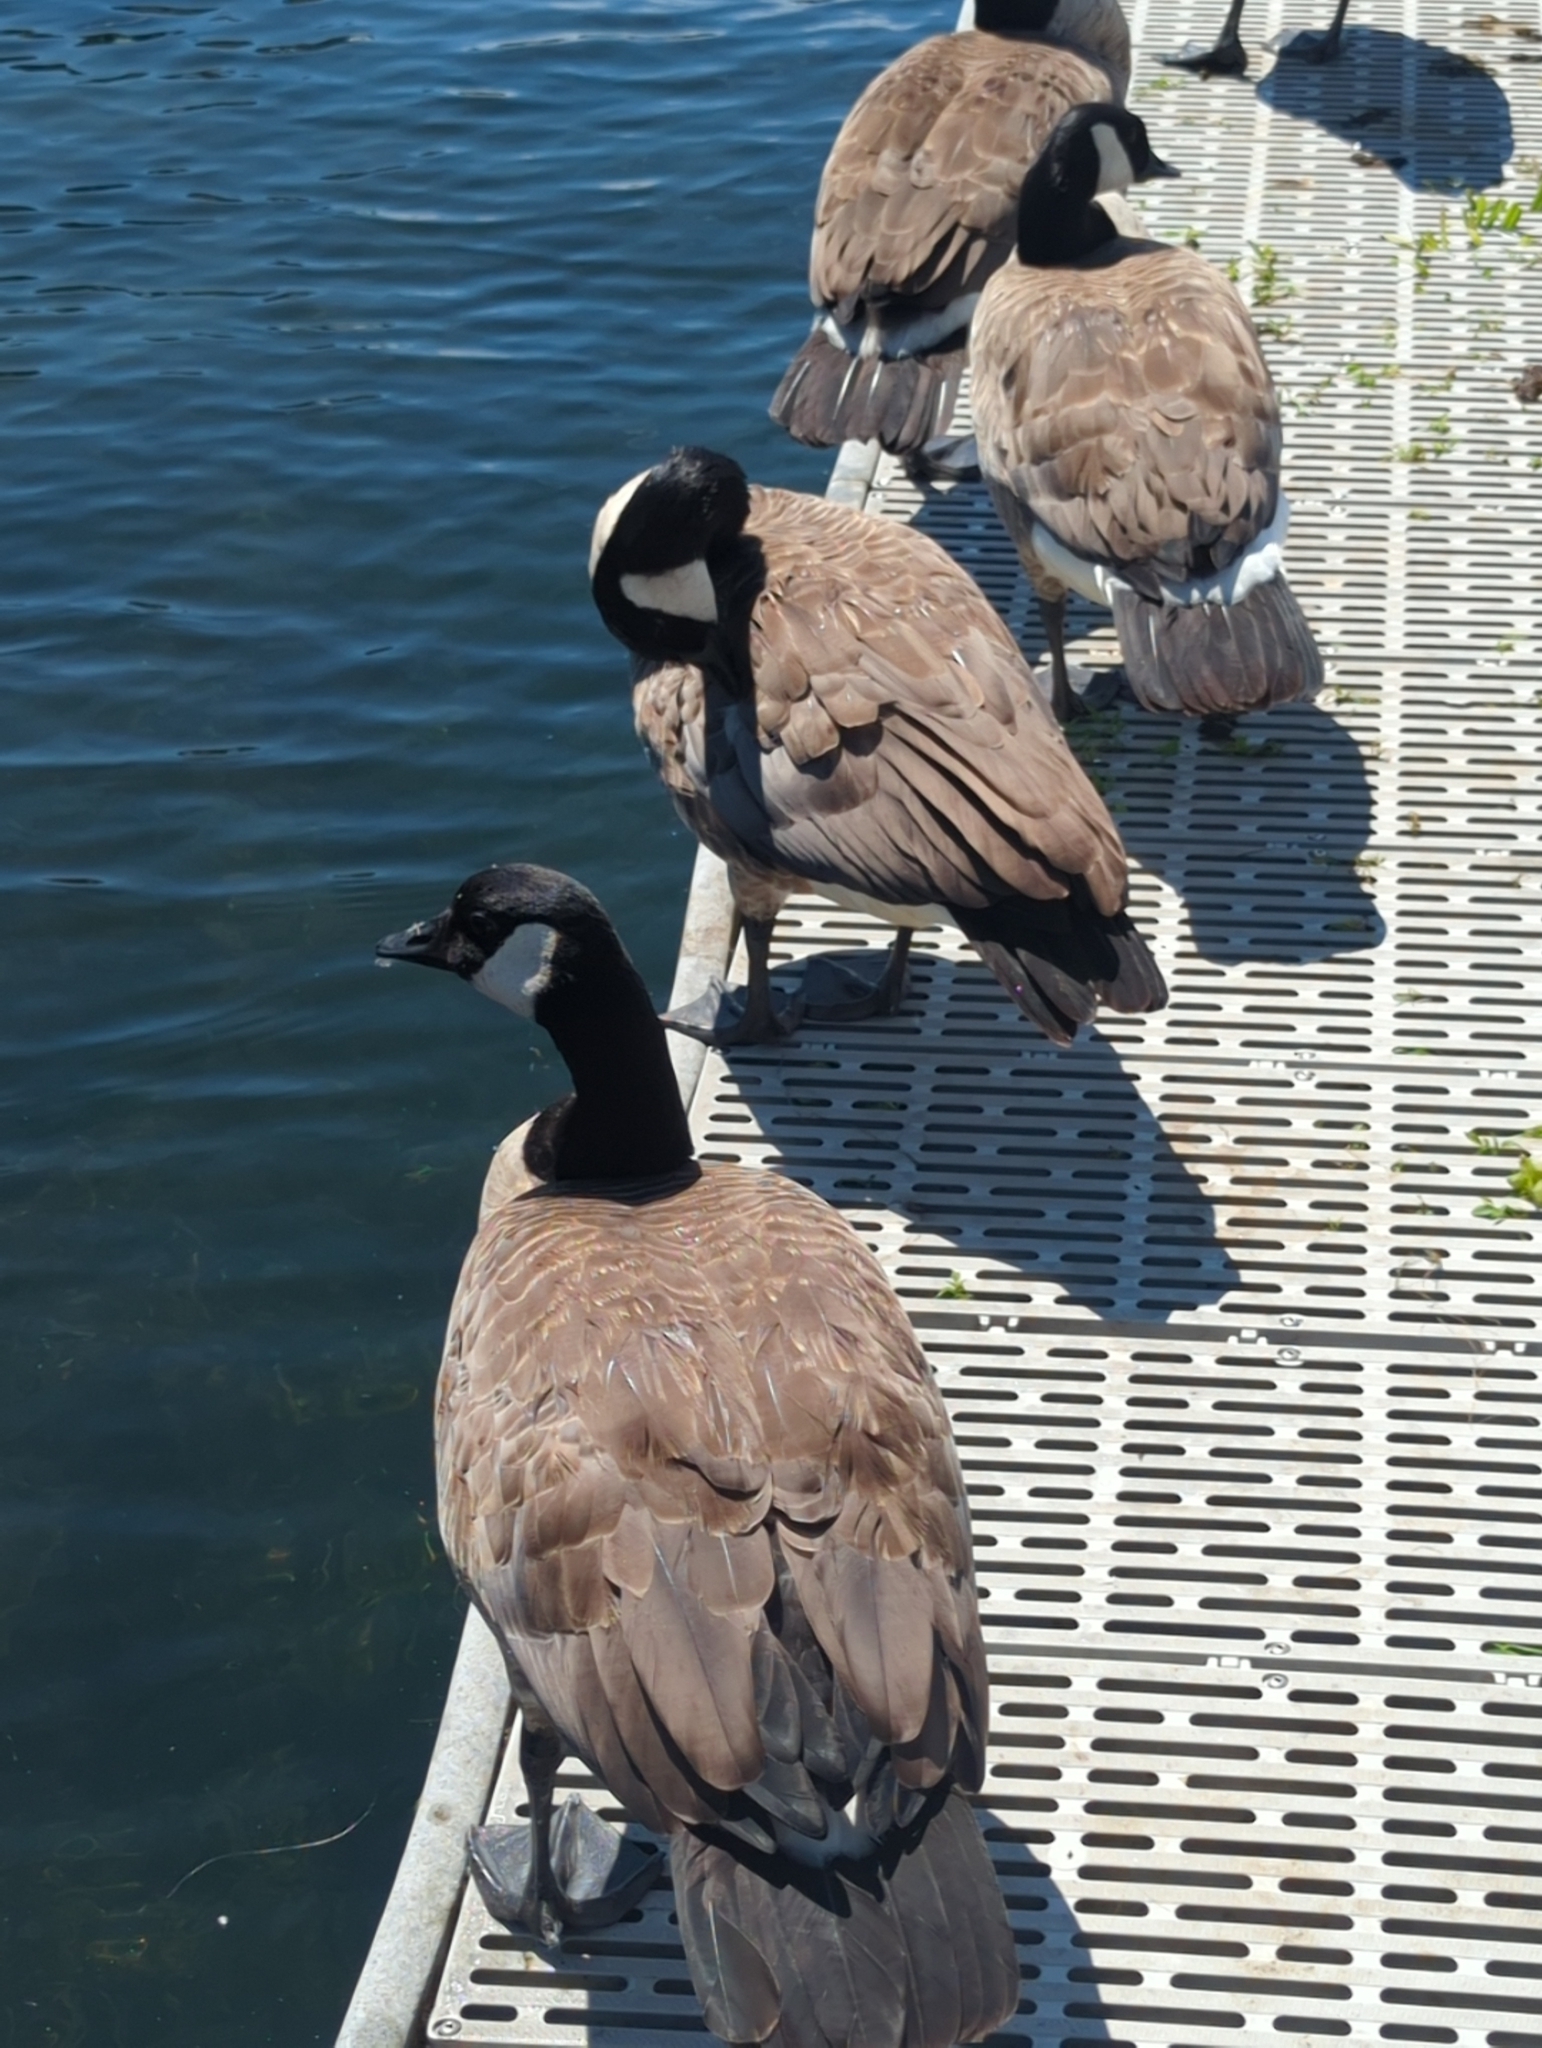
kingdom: Animalia
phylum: Chordata
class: Aves
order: Anseriformes
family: Anatidae
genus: Branta
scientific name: Branta canadensis
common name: Canada goose
